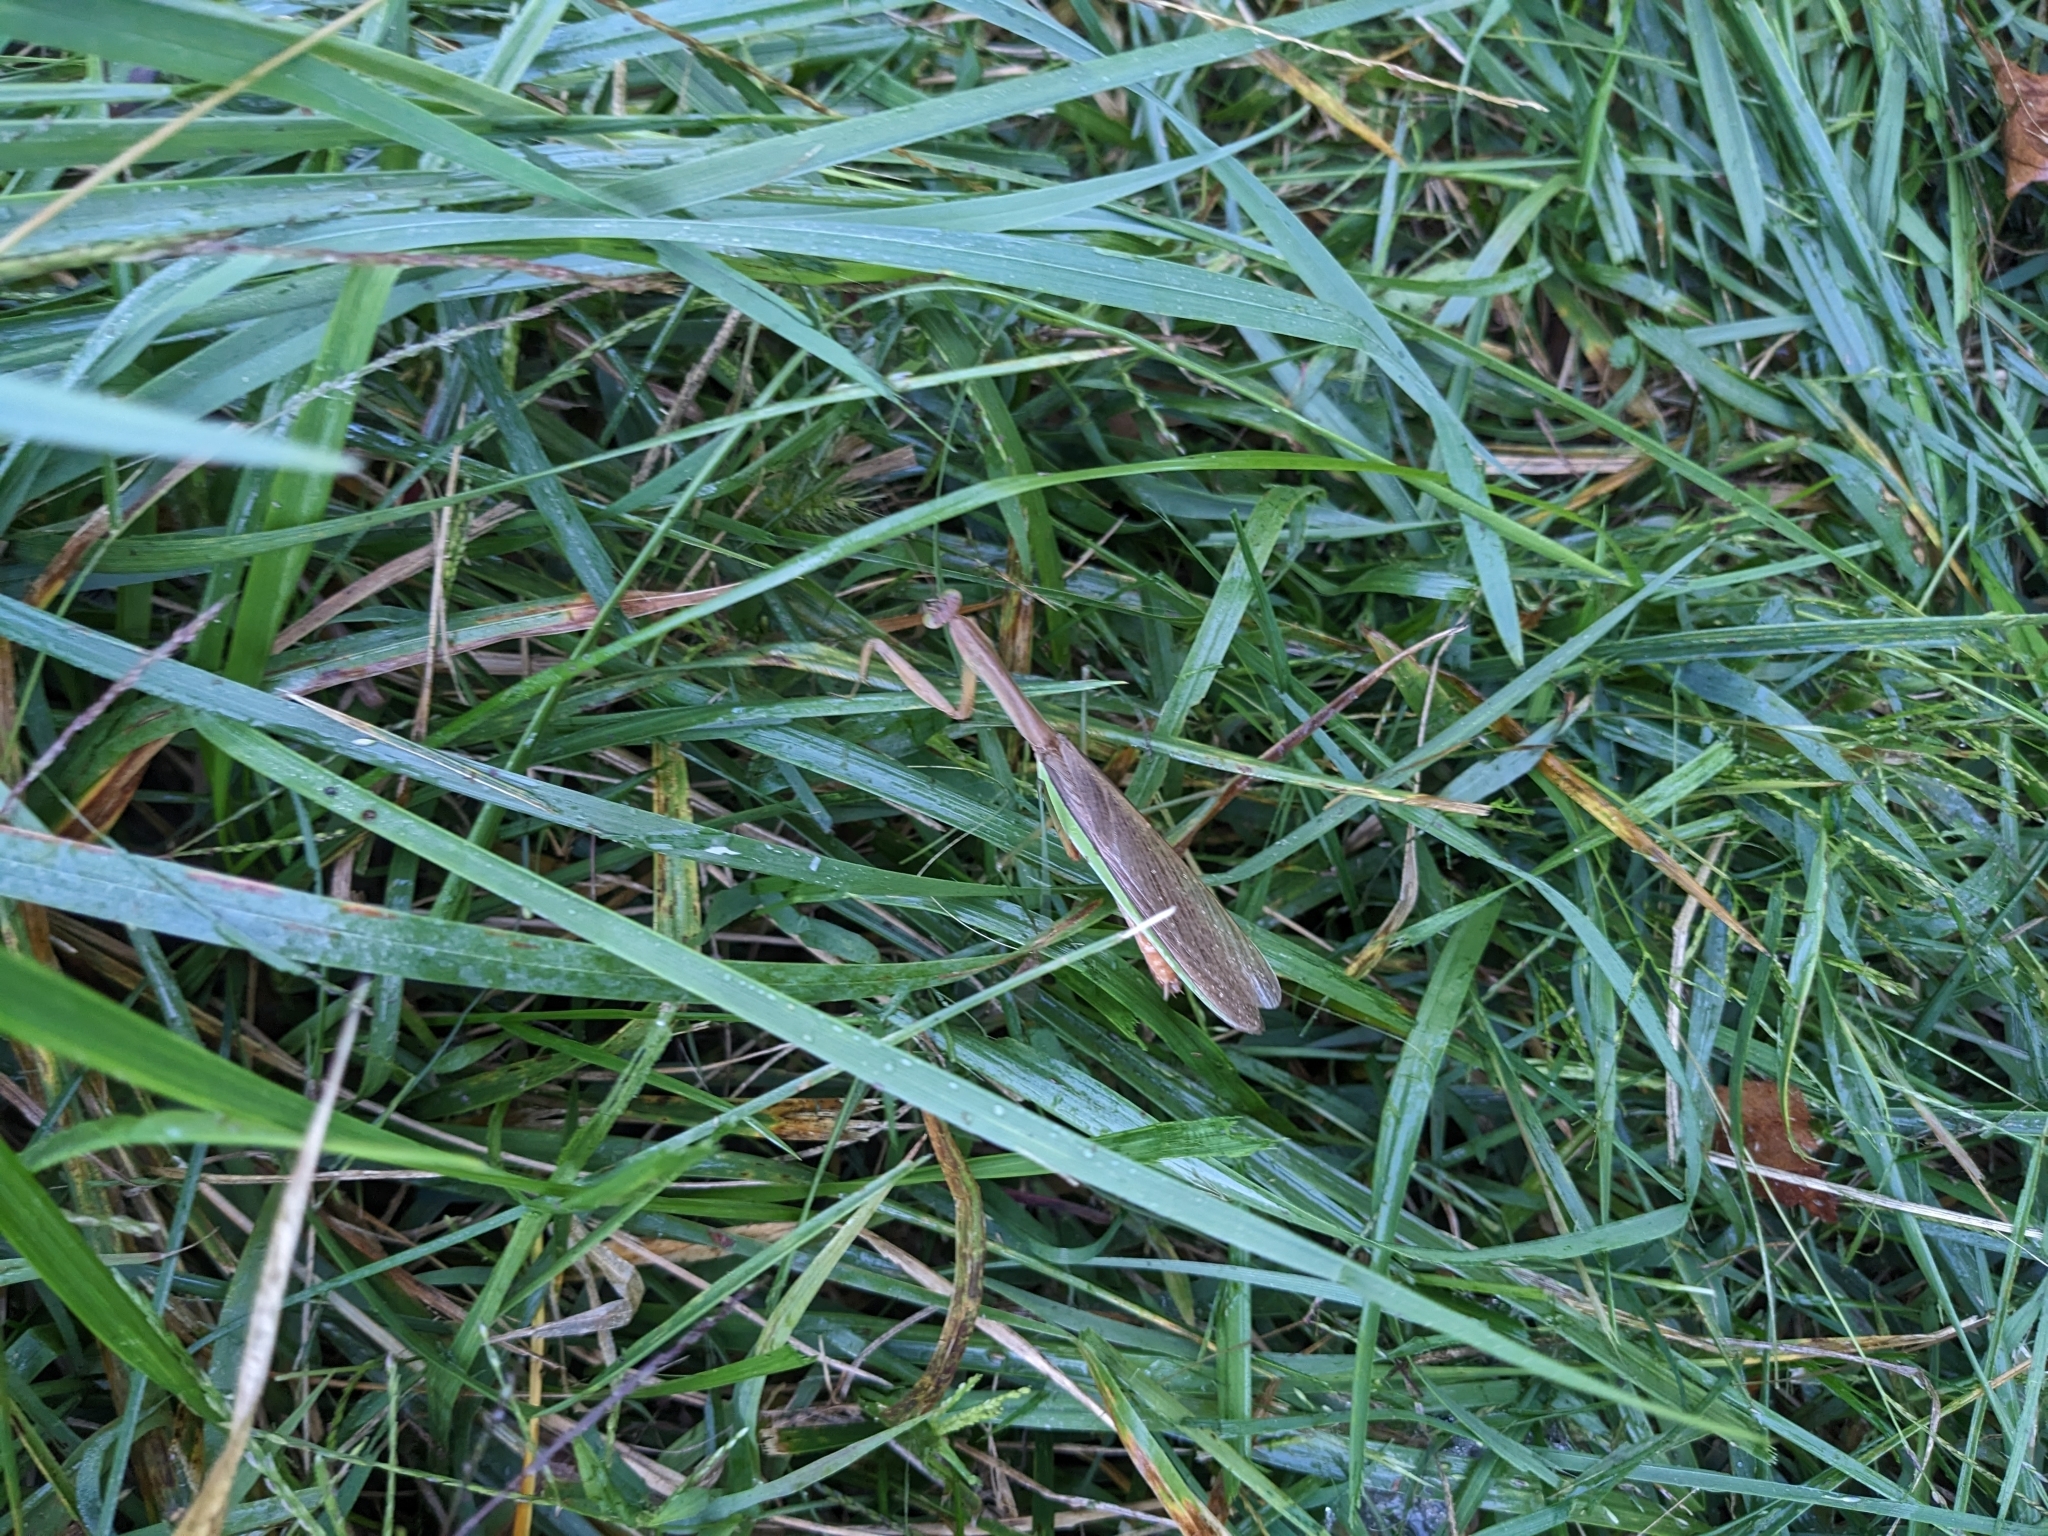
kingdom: Animalia
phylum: Arthropoda
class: Insecta
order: Mantodea
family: Mantidae
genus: Tenodera
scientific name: Tenodera sinensis
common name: Chinese mantis
